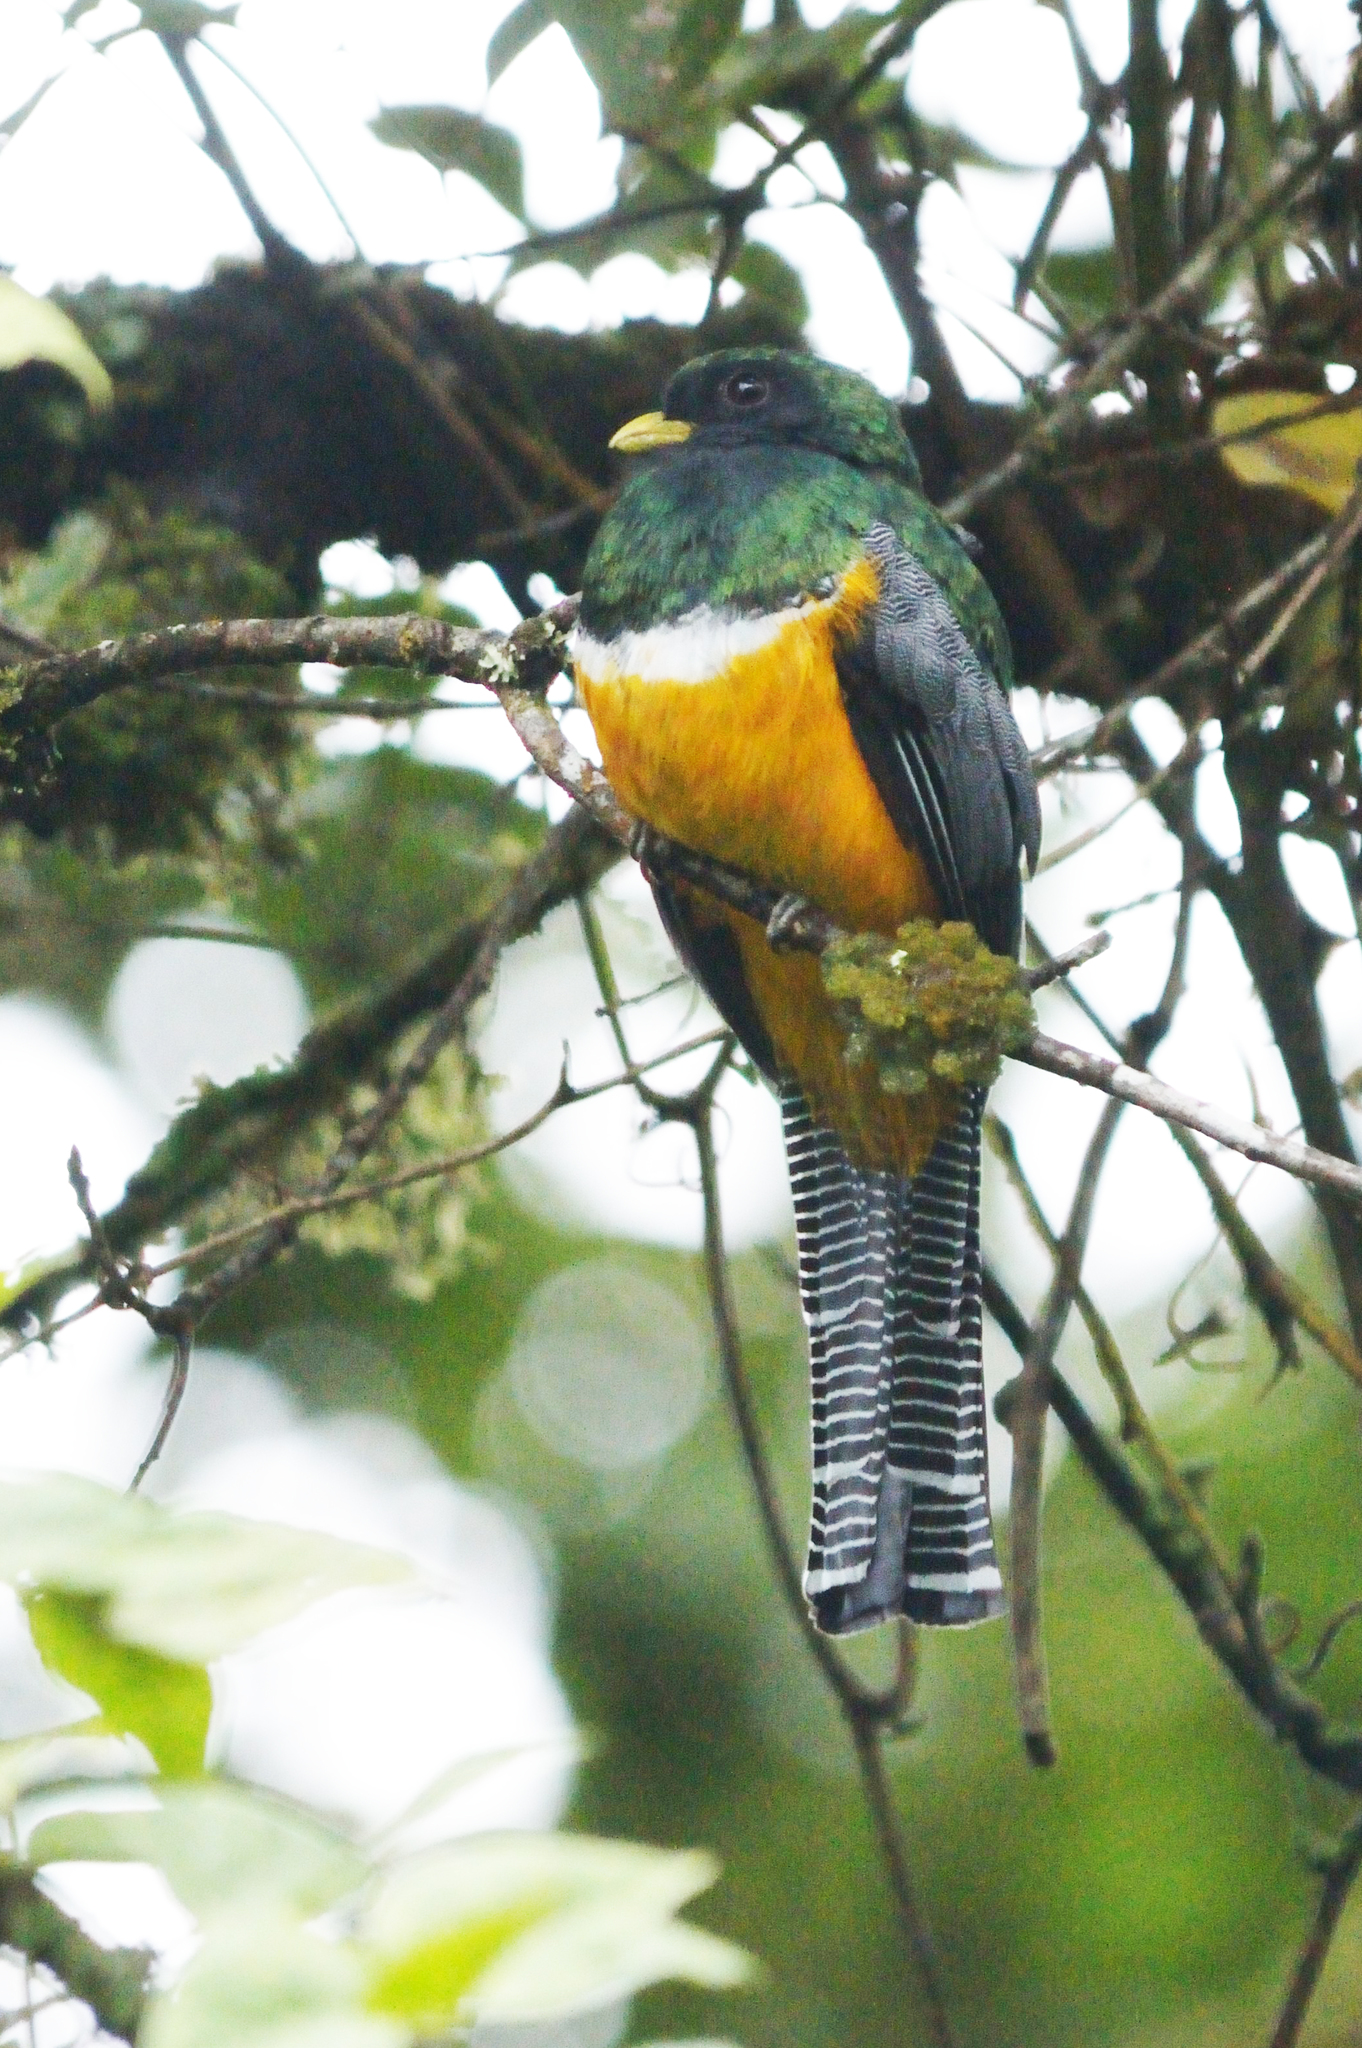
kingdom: Animalia
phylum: Chordata
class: Aves
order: Trogoniformes
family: Trogonidae
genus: Trogon
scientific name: Trogon collaris
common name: Collared trogon
